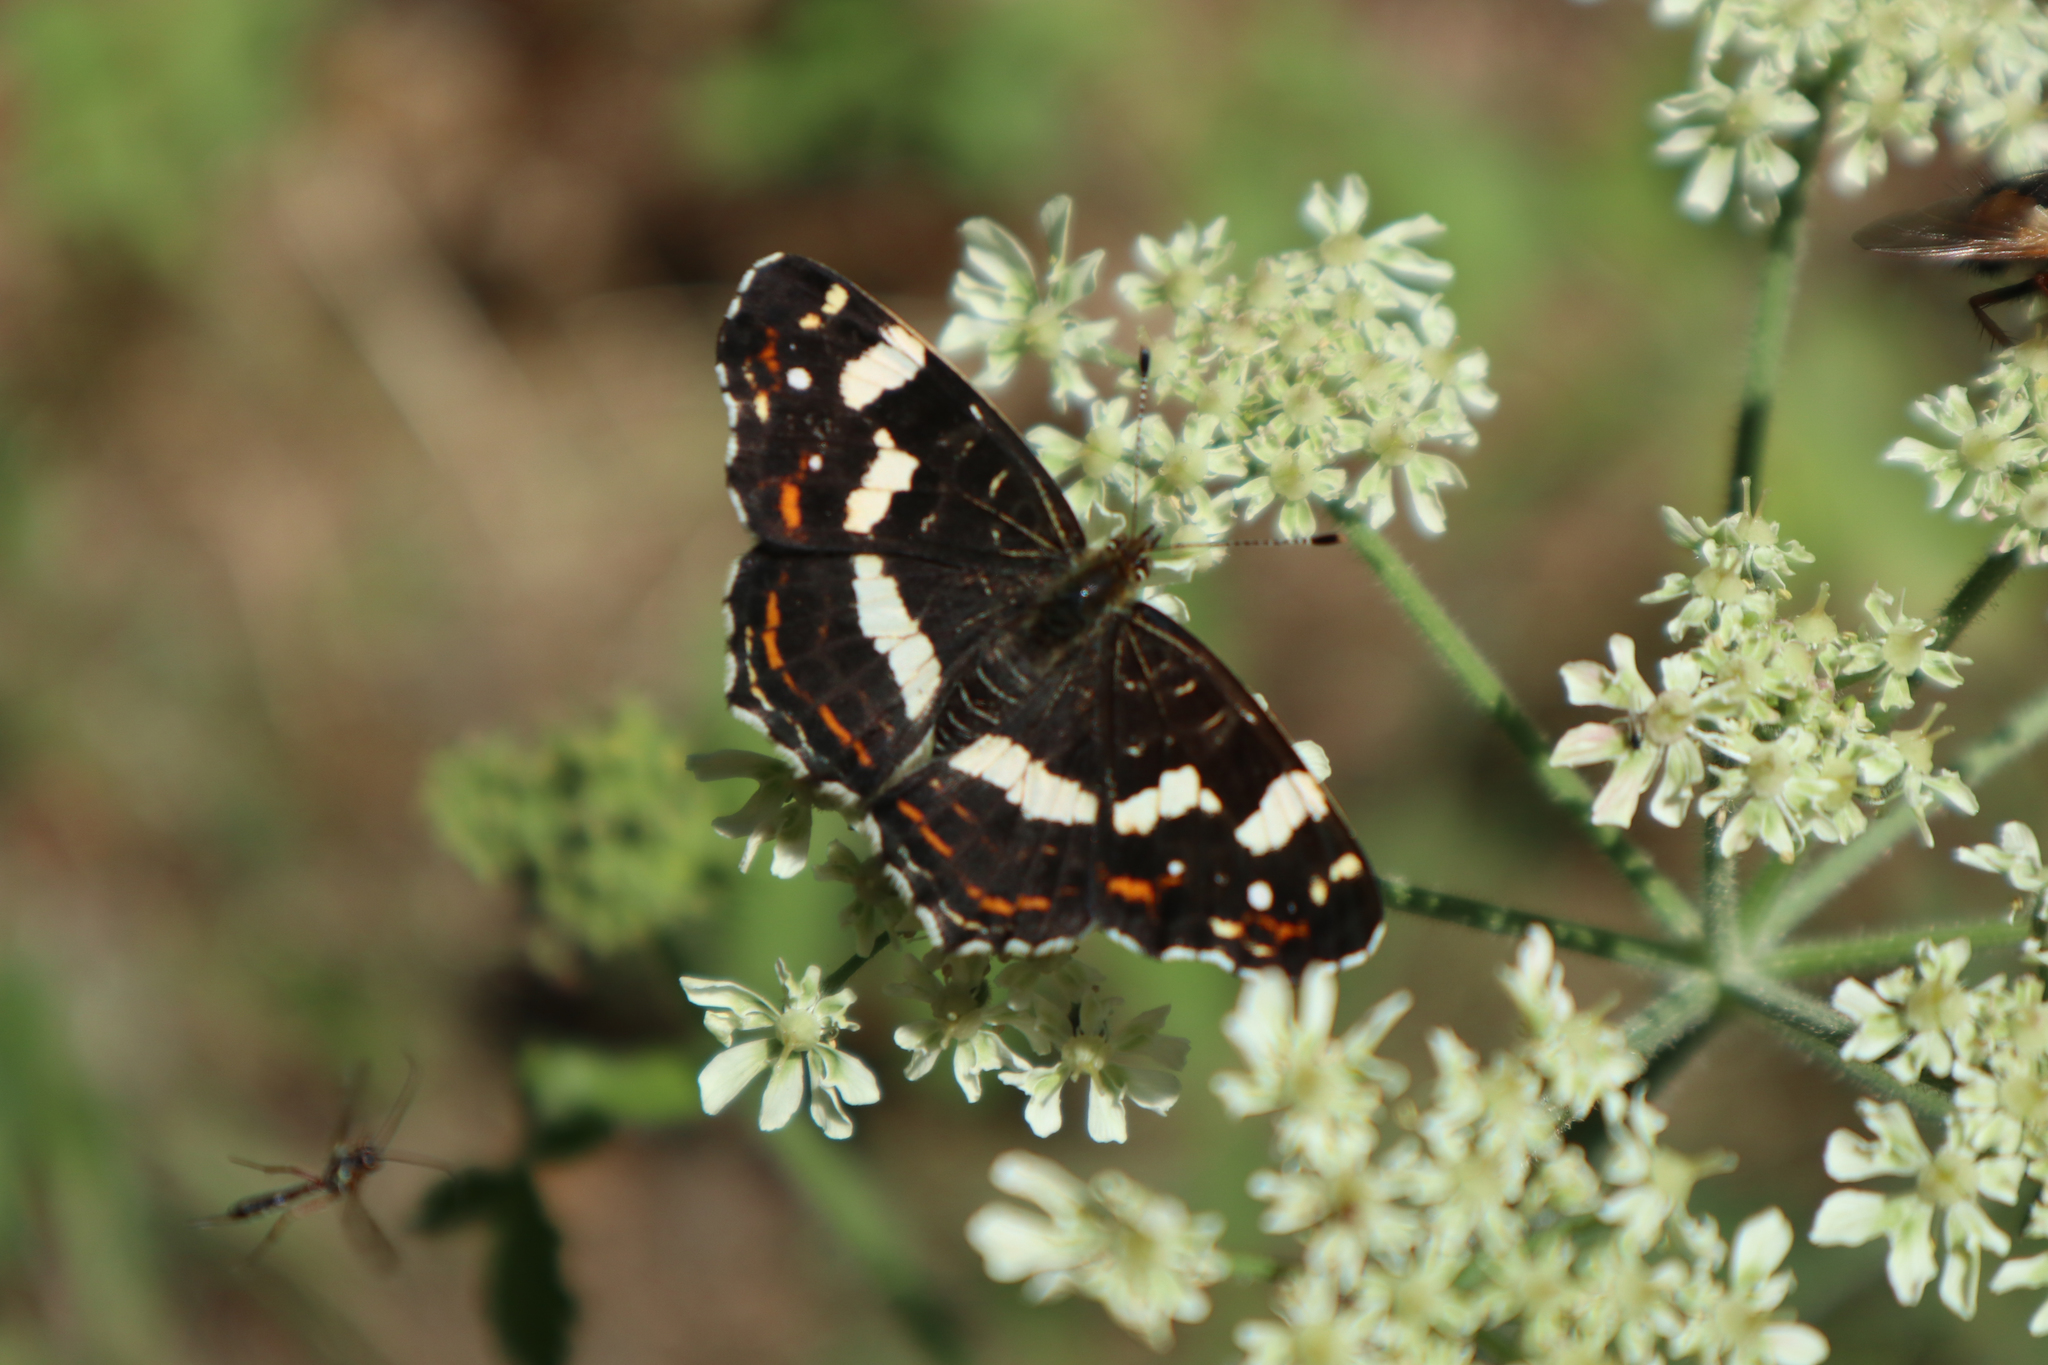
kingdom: Animalia
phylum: Arthropoda
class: Insecta
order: Lepidoptera
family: Nymphalidae
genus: Araschnia
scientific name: Araschnia levana
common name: Map butterfly
